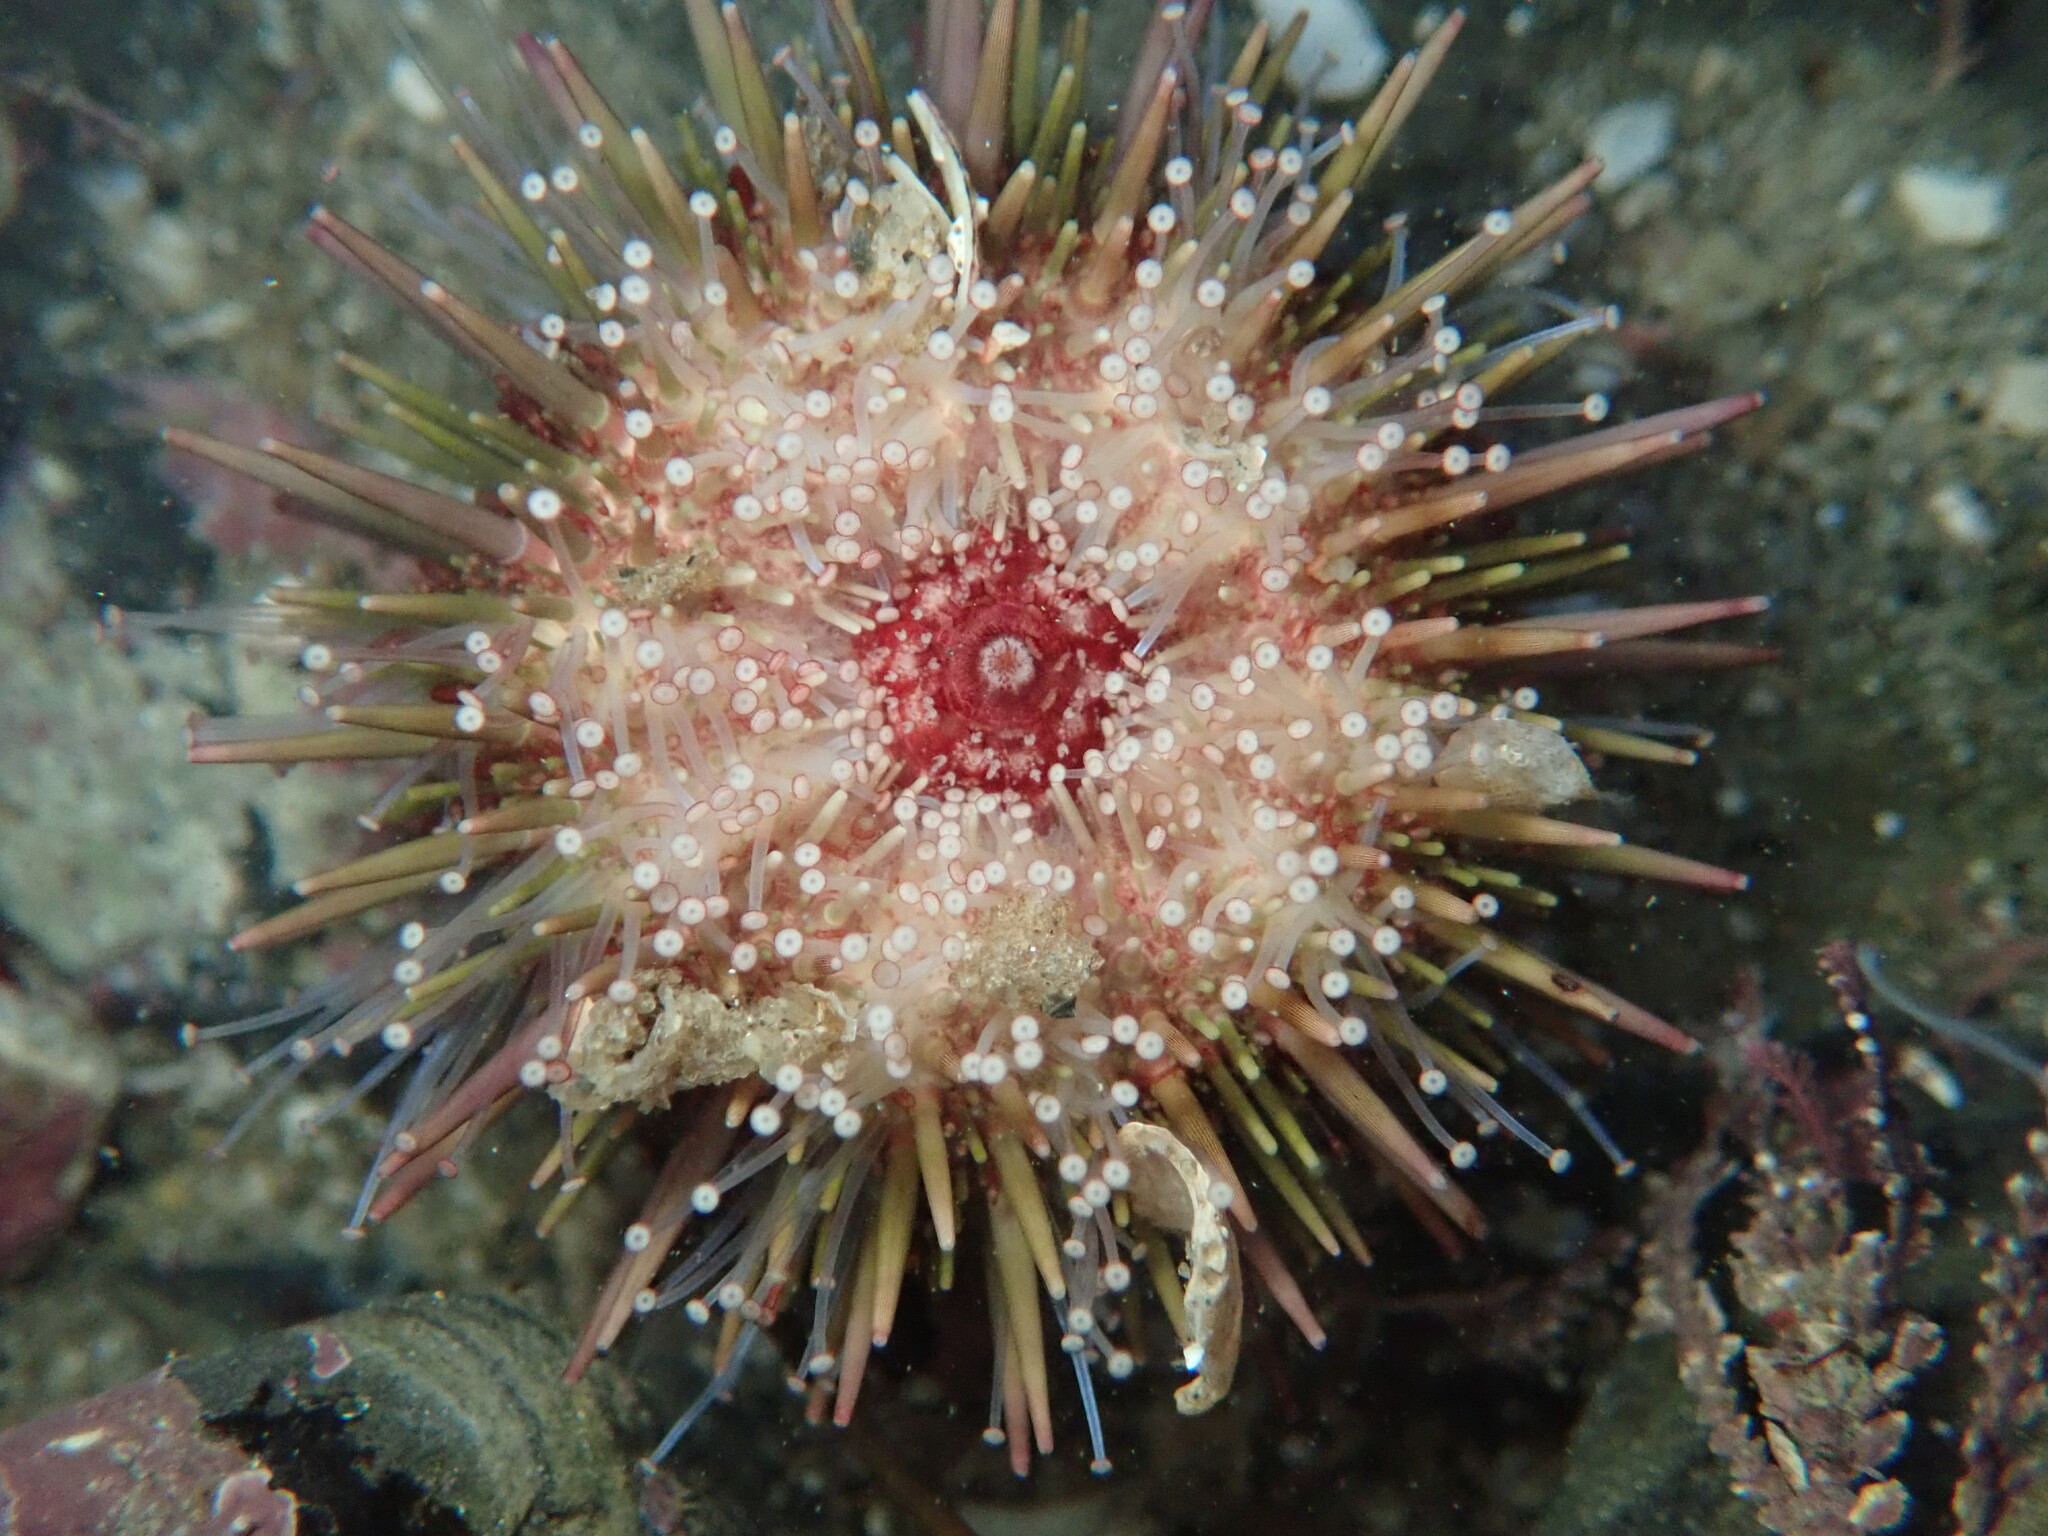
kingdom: Animalia
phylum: Echinodermata
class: Echinoidea
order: Camarodonta
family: Strongylocentrotidae
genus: Strongylocentrotus
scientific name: Strongylocentrotus purpuratus
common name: Purple sea urchin
